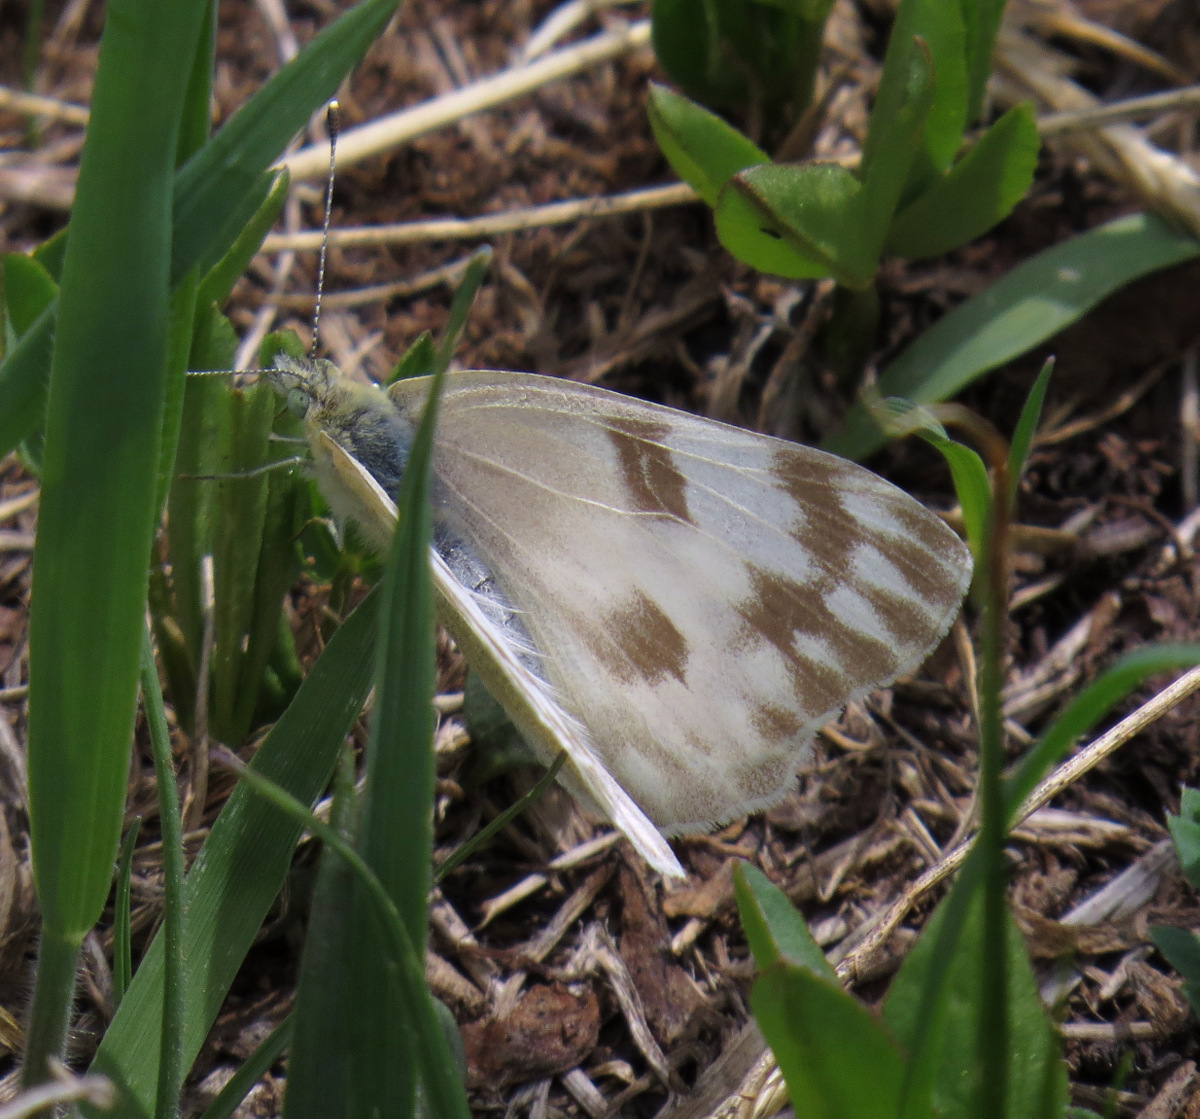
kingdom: Animalia
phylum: Arthropoda
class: Insecta
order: Lepidoptera
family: Pieridae
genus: Pontia
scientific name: Pontia protodice
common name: Checkered white
